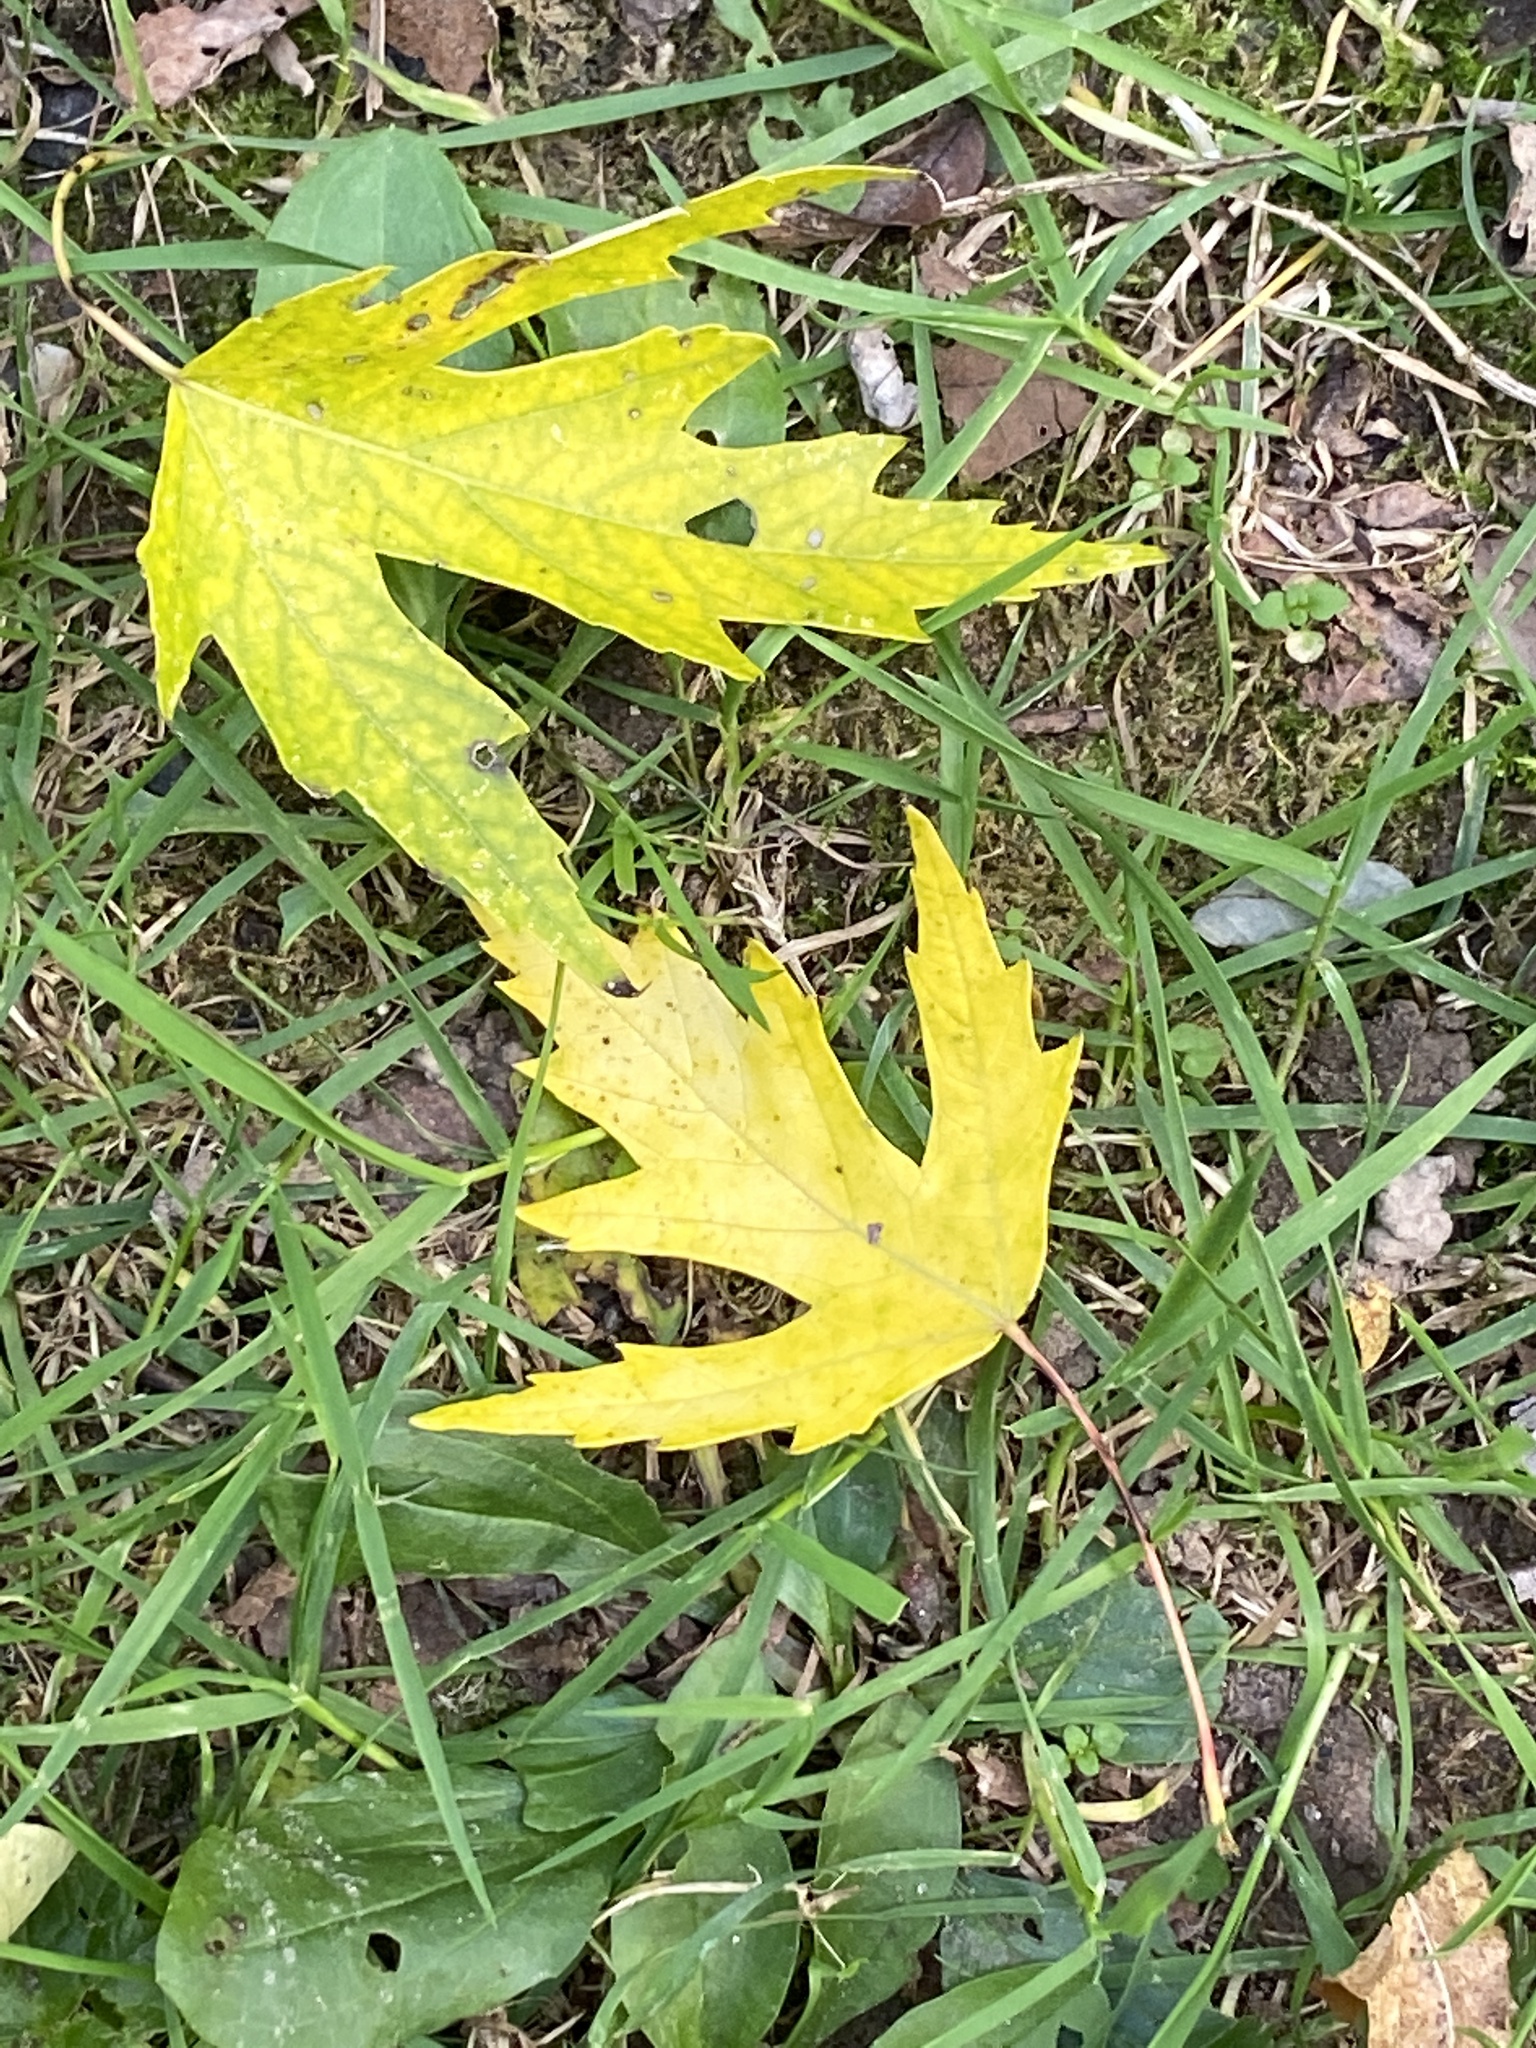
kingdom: Plantae
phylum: Tracheophyta
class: Magnoliopsida
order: Sapindales
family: Sapindaceae
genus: Acer
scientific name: Acer saccharinum
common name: Silver maple
